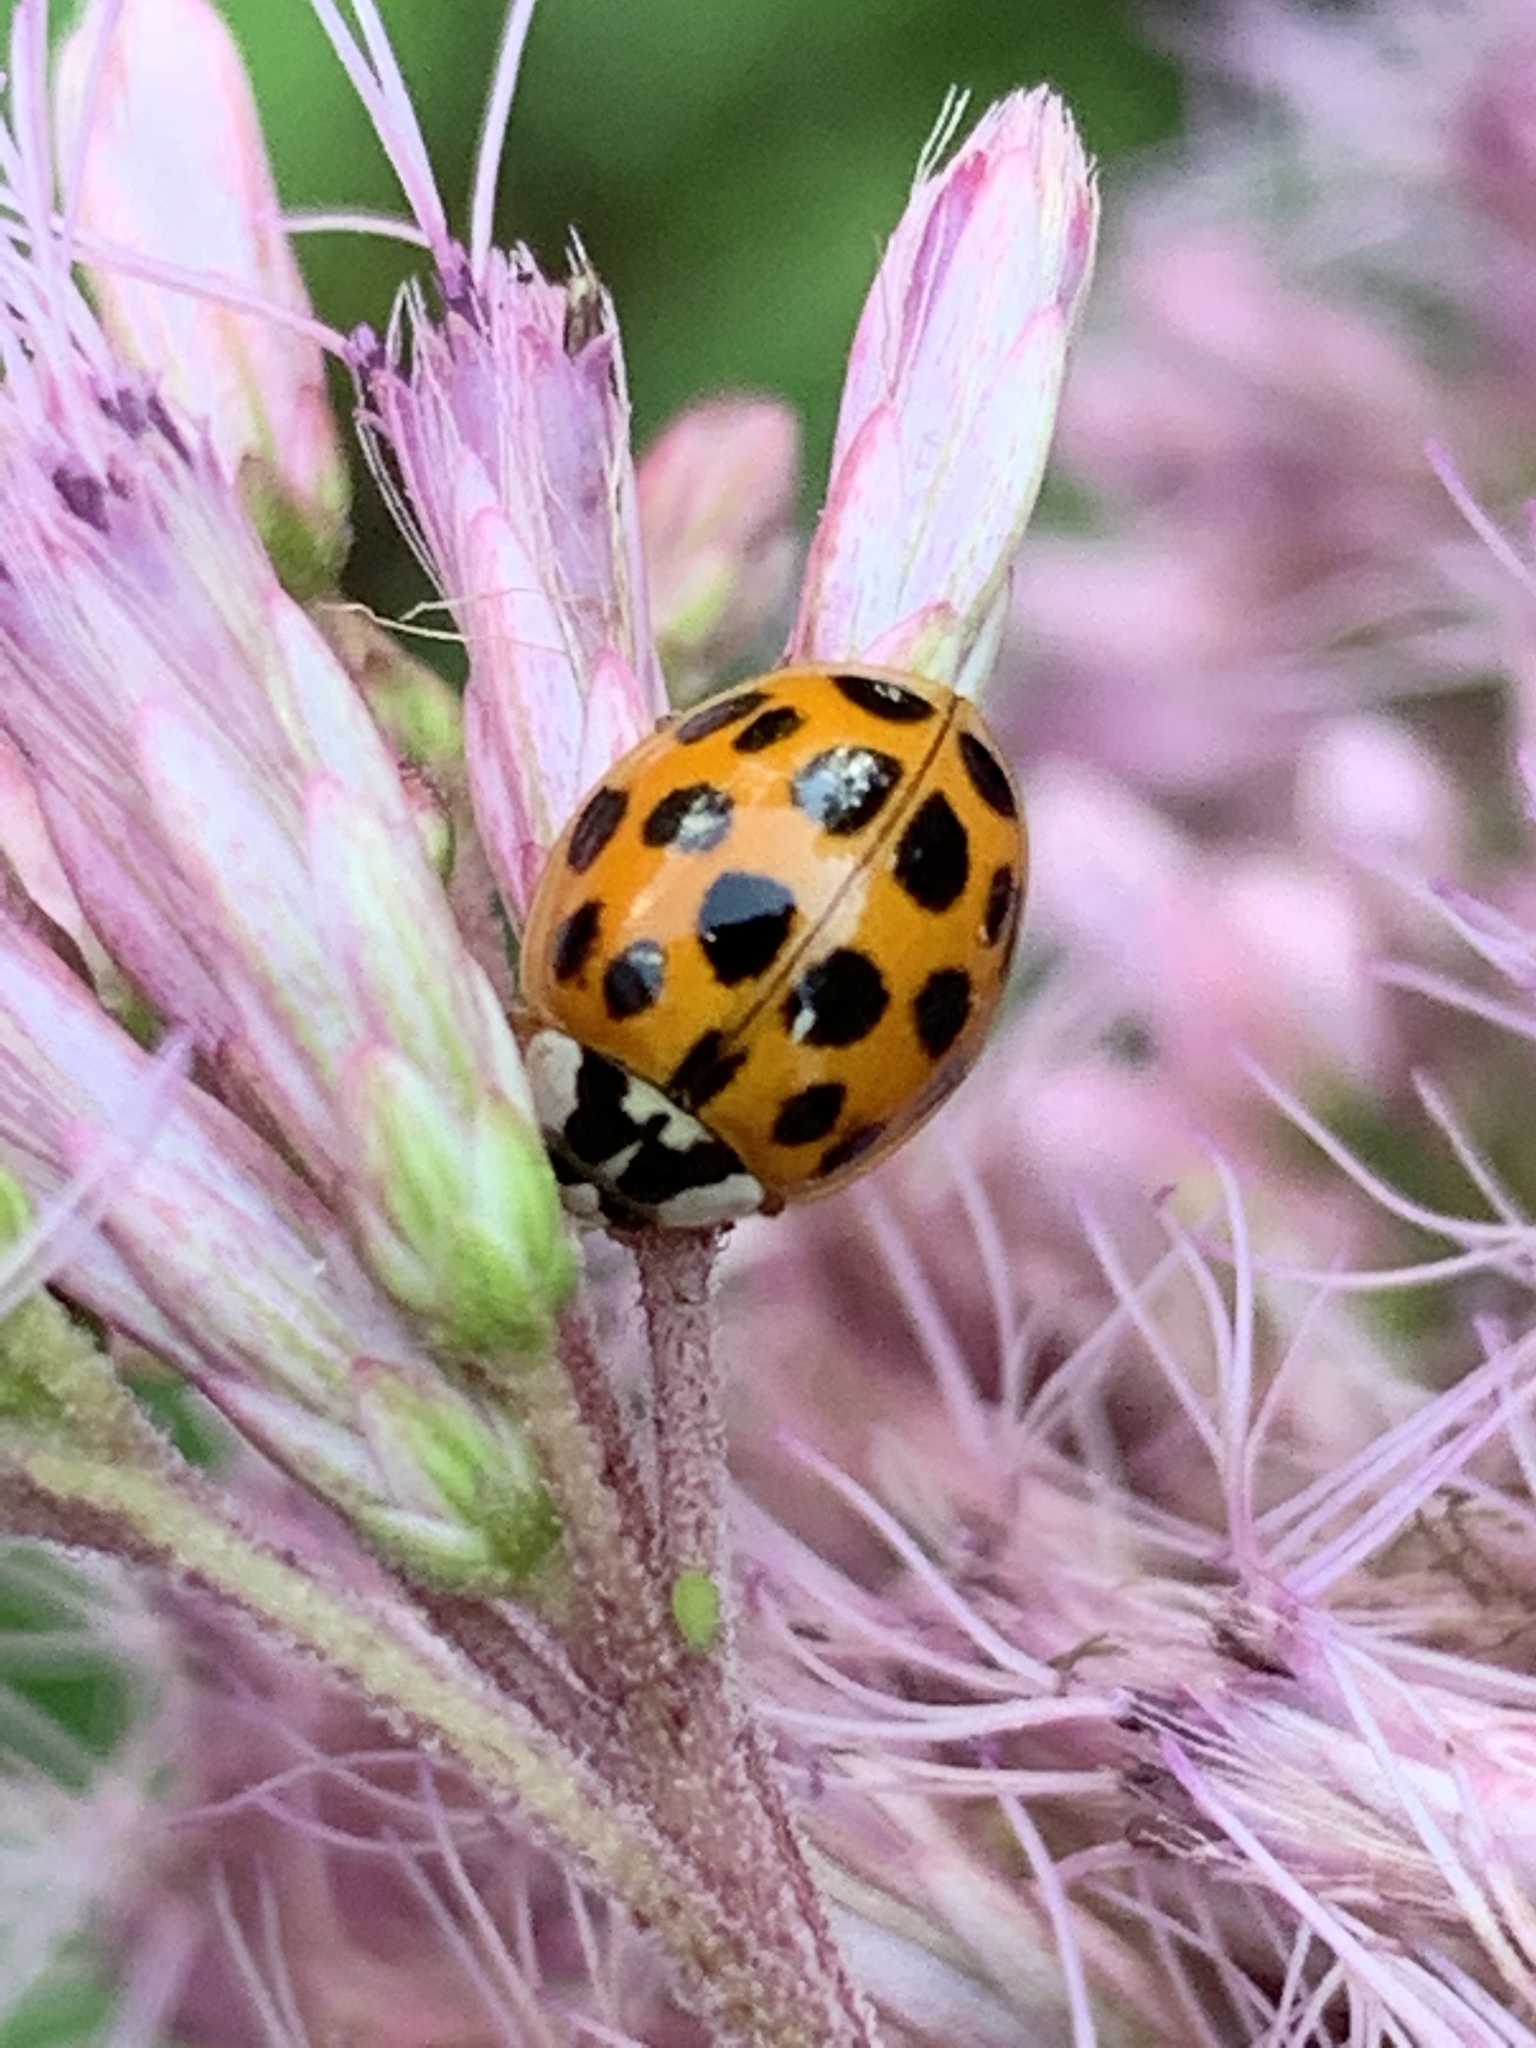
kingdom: Animalia
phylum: Arthropoda
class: Insecta
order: Coleoptera
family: Coccinellidae
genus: Harmonia
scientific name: Harmonia axyridis
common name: Harlequin ladybird
